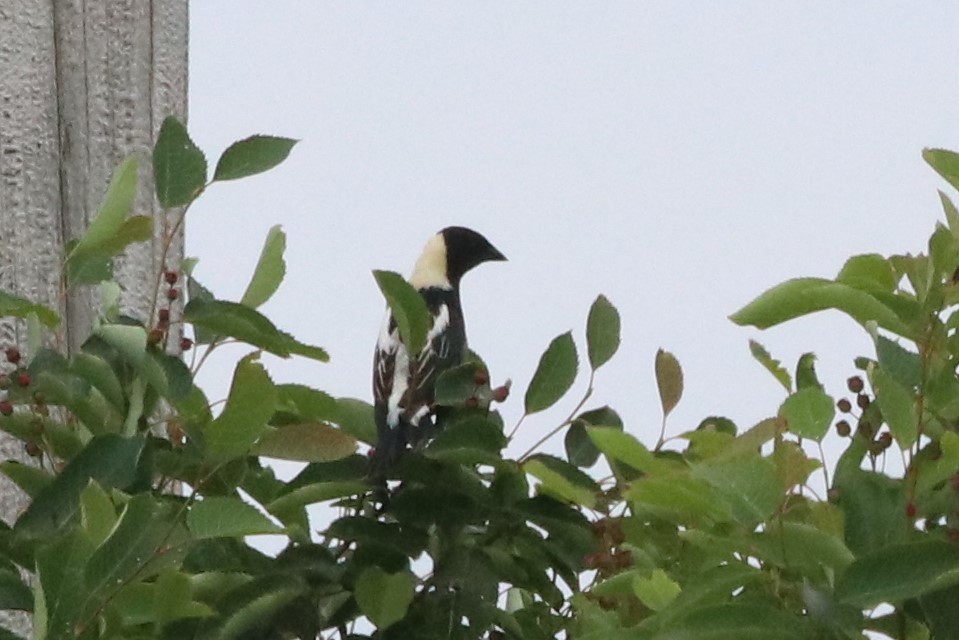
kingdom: Animalia
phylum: Chordata
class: Aves
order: Passeriformes
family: Icteridae
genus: Dolichonyx
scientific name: Dolichonyx oryzivorus
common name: Bobolink
